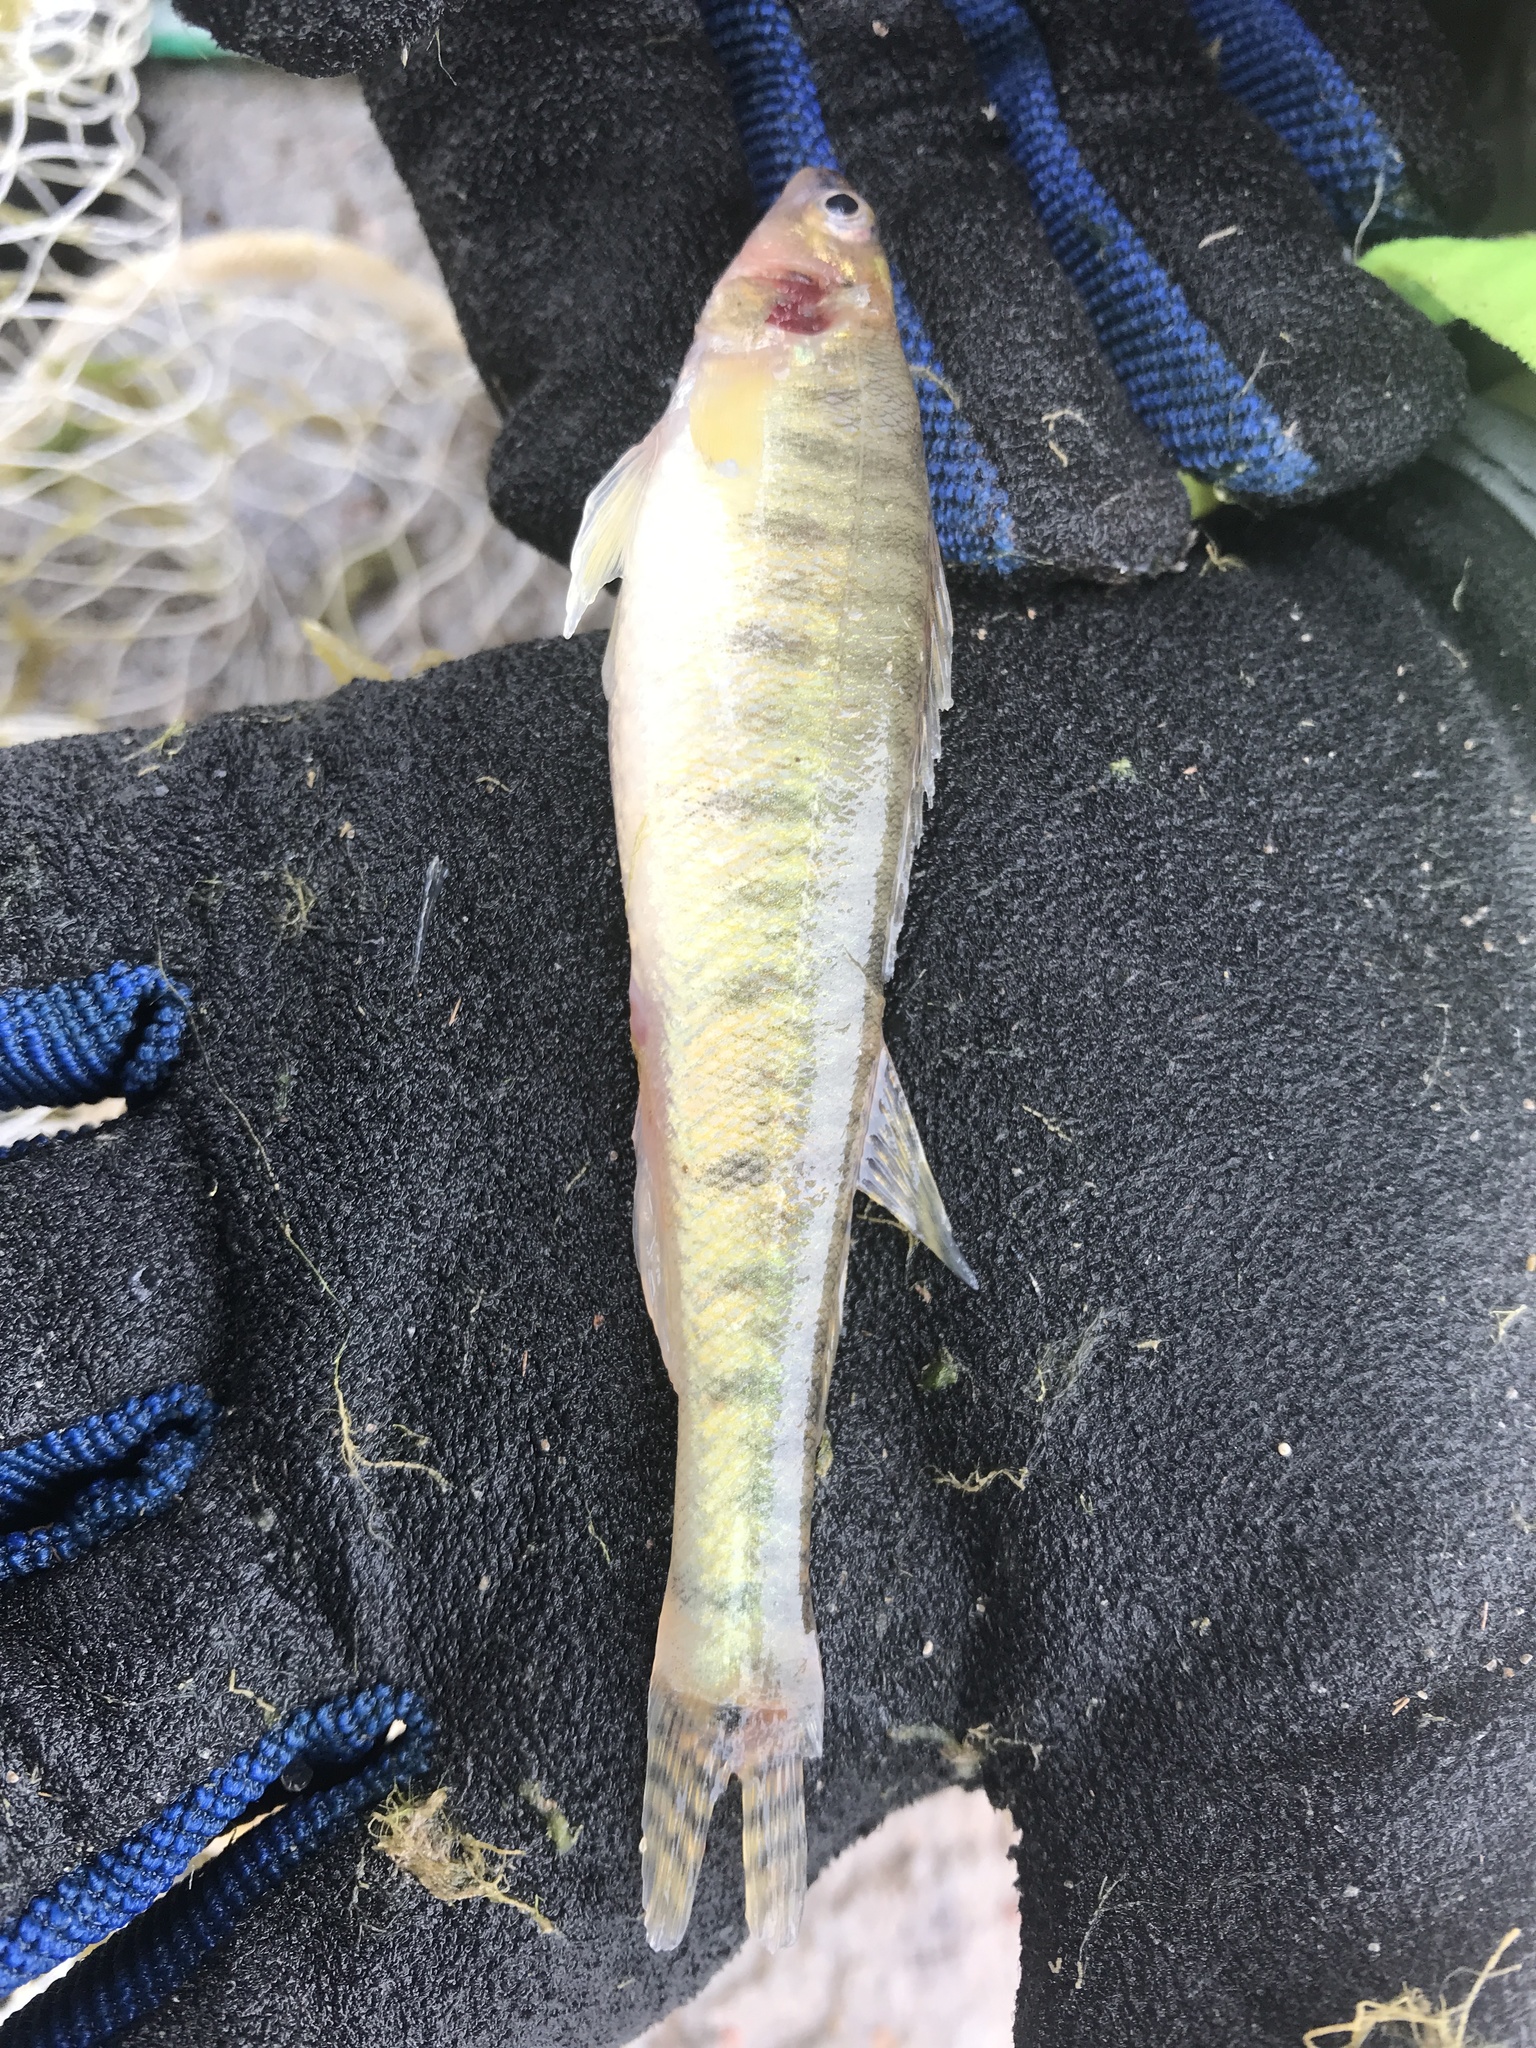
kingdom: Animalia
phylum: Chordata
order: Perciformes
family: Percidae
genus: Percina
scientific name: Percina macrolepida
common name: Bigscale logperch
